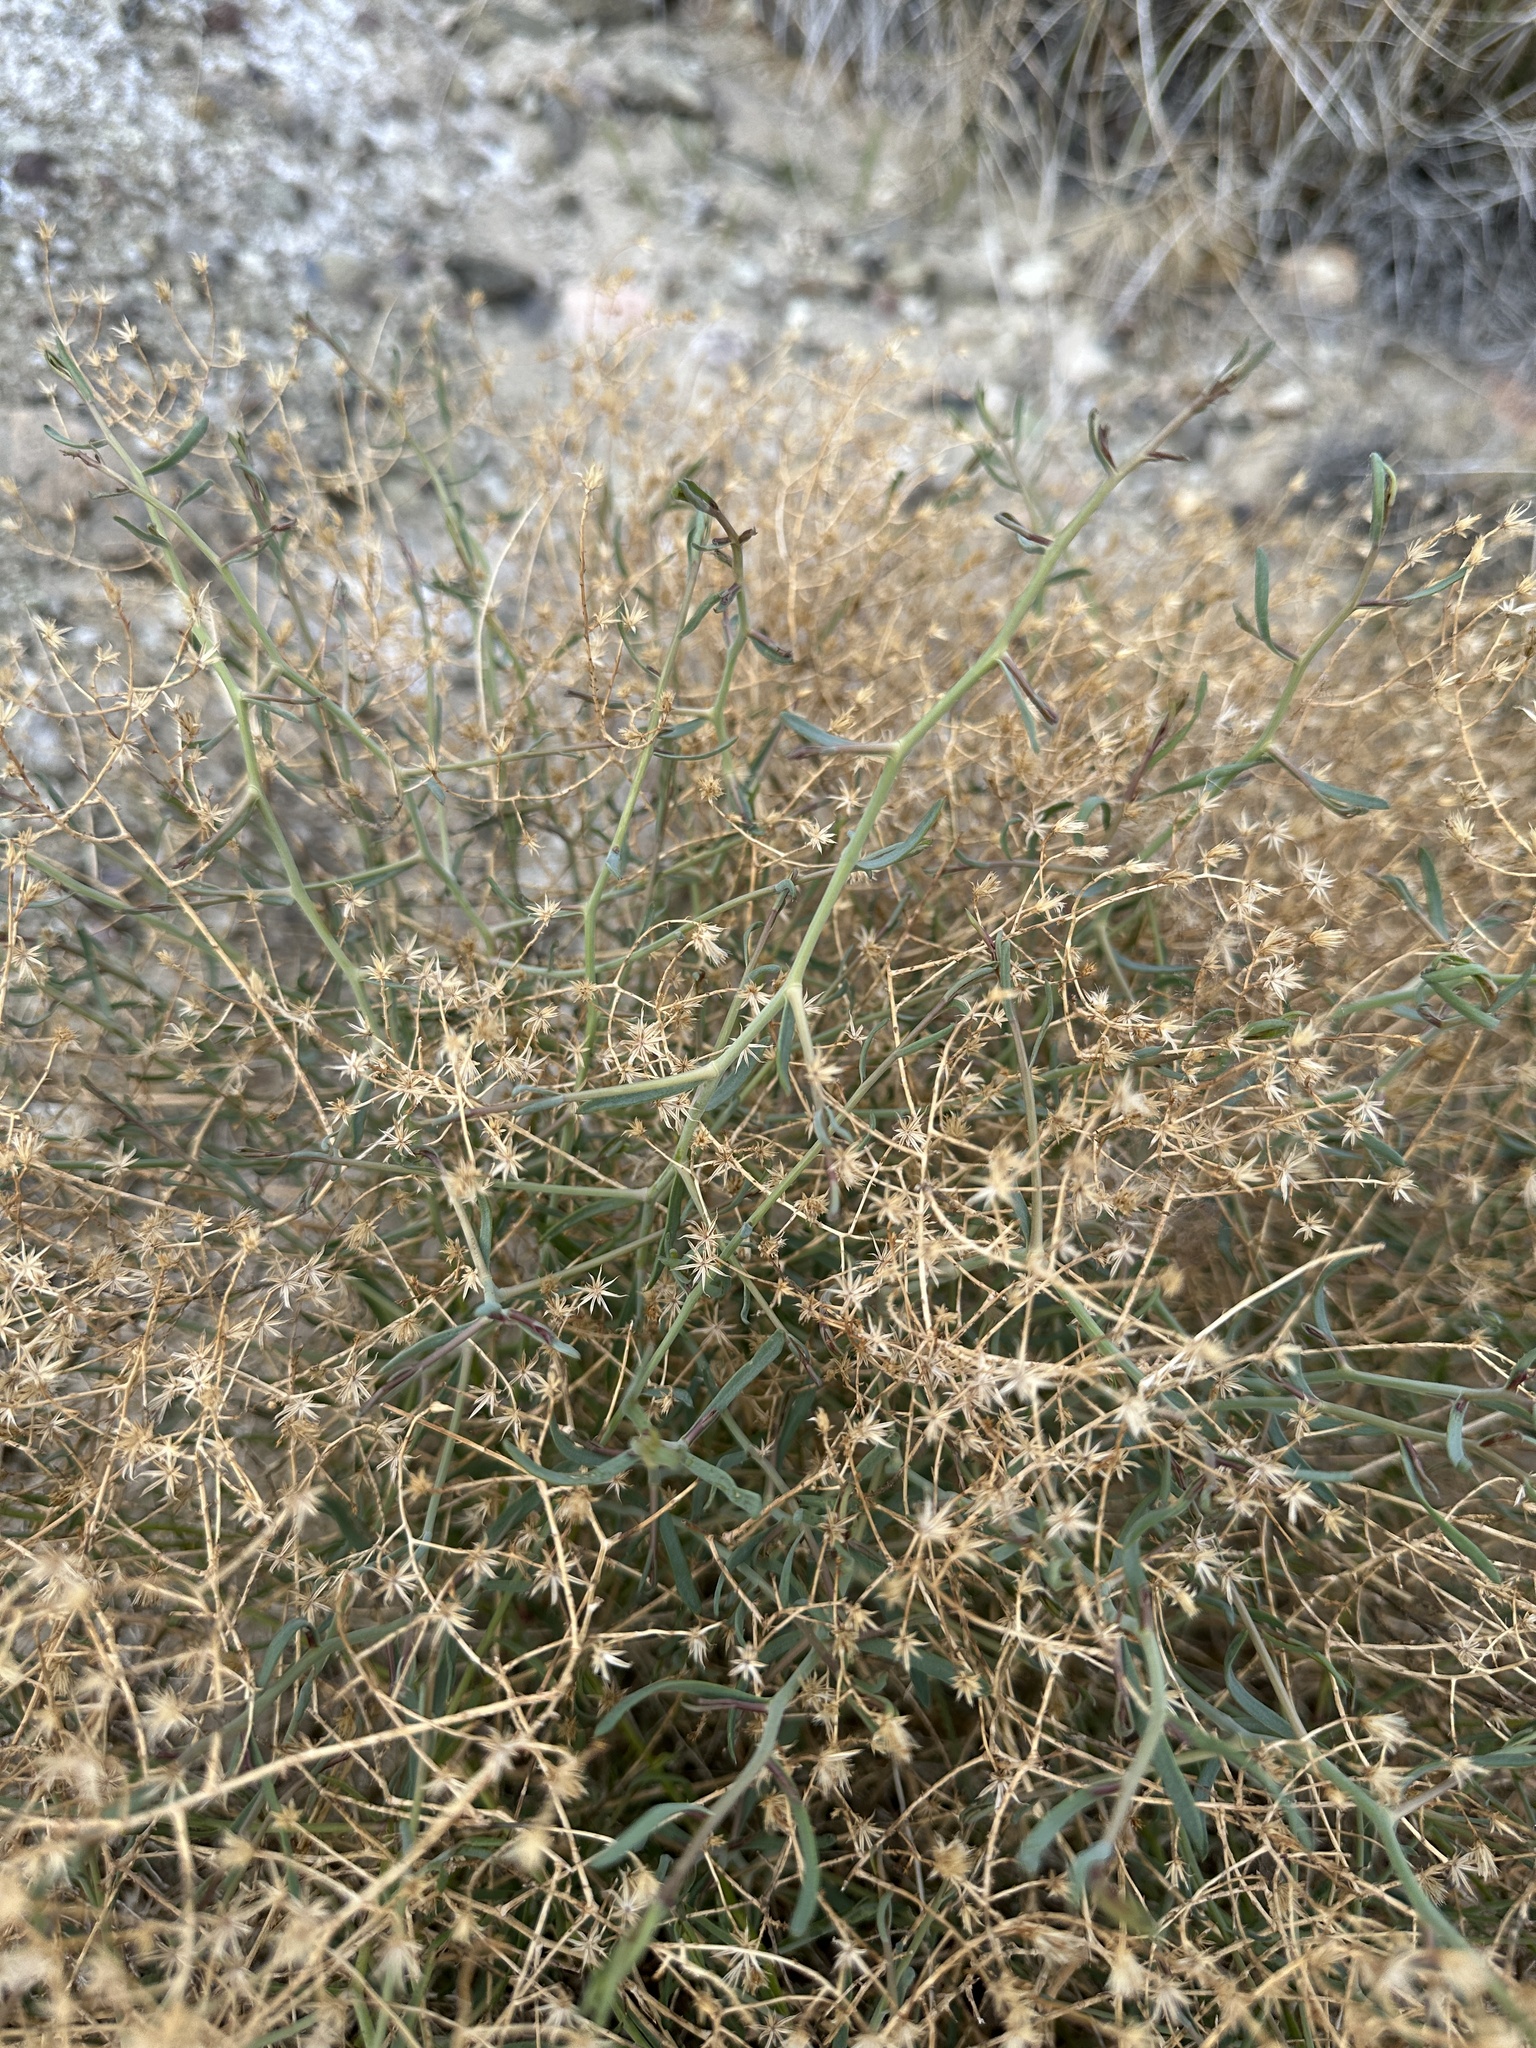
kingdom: Plantae
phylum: Tracheophyta
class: Magnoliopsida
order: Asterales
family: Asteraceae
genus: Leucosyris
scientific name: Leucosyris carnosa
